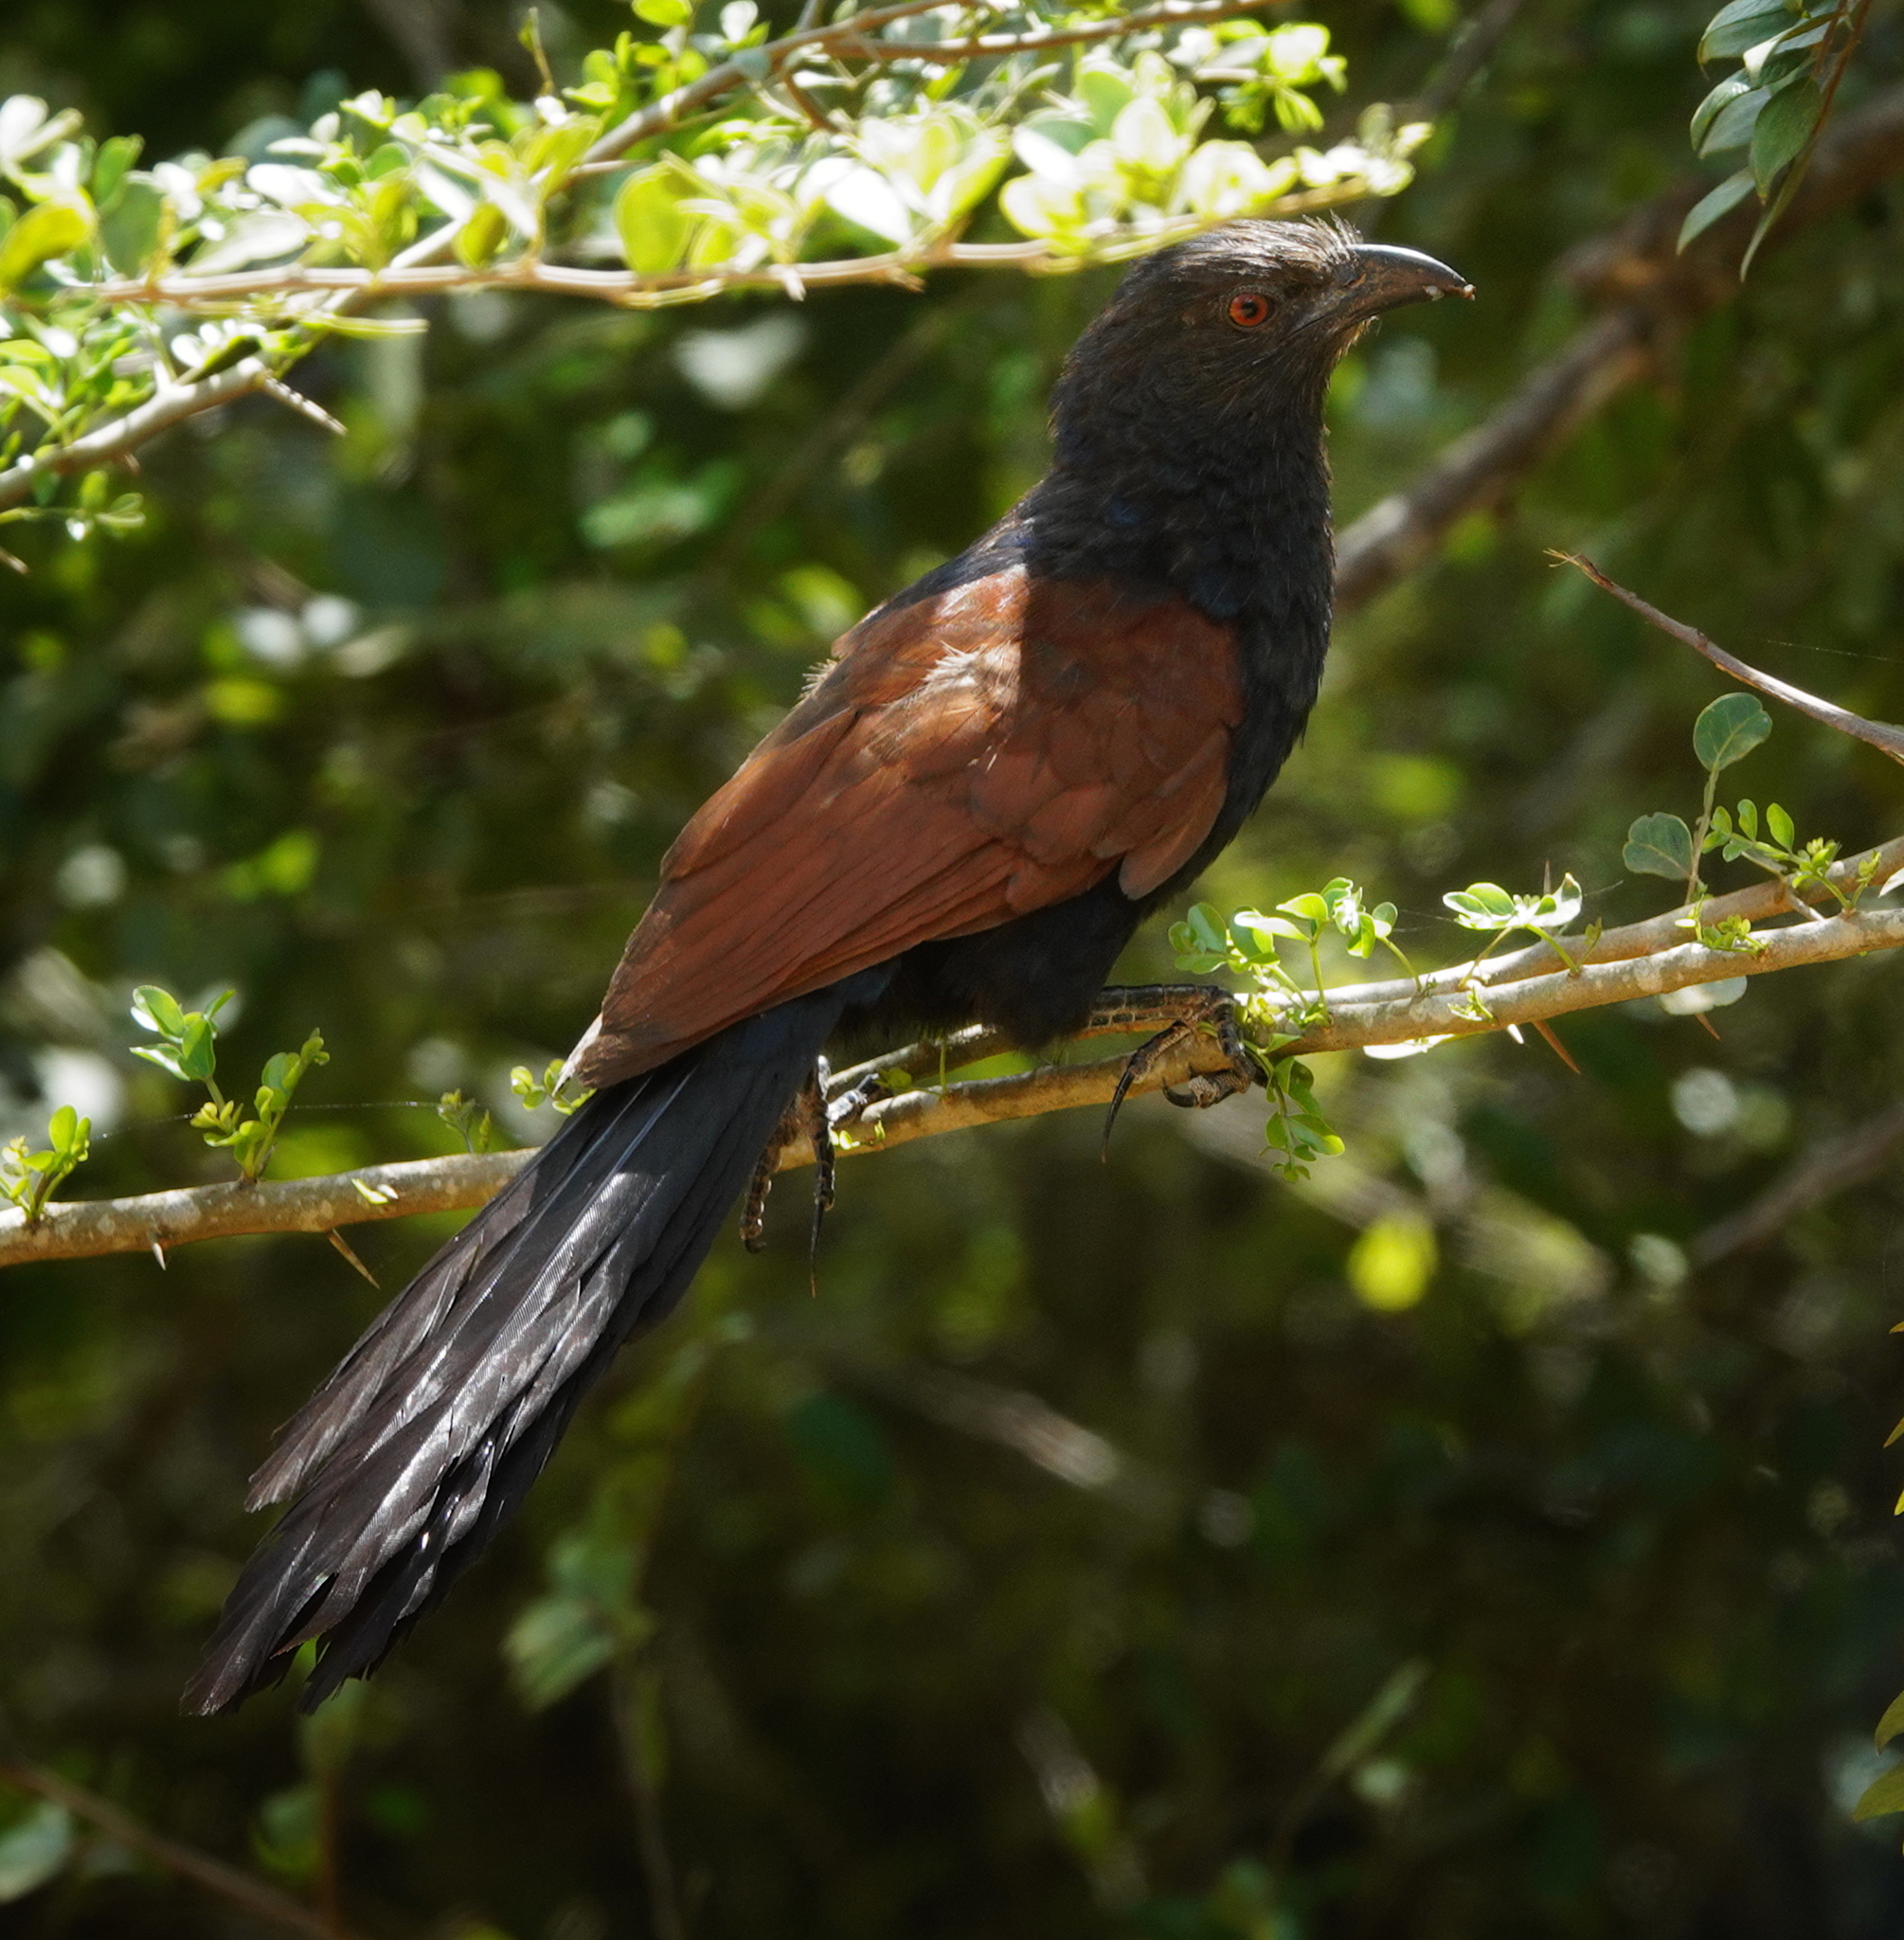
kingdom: Animalia
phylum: Chordata
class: Aves
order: Cuculiformes
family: Cuculidae
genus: Centropus
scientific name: Centropus sinensis
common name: Greater coucal
